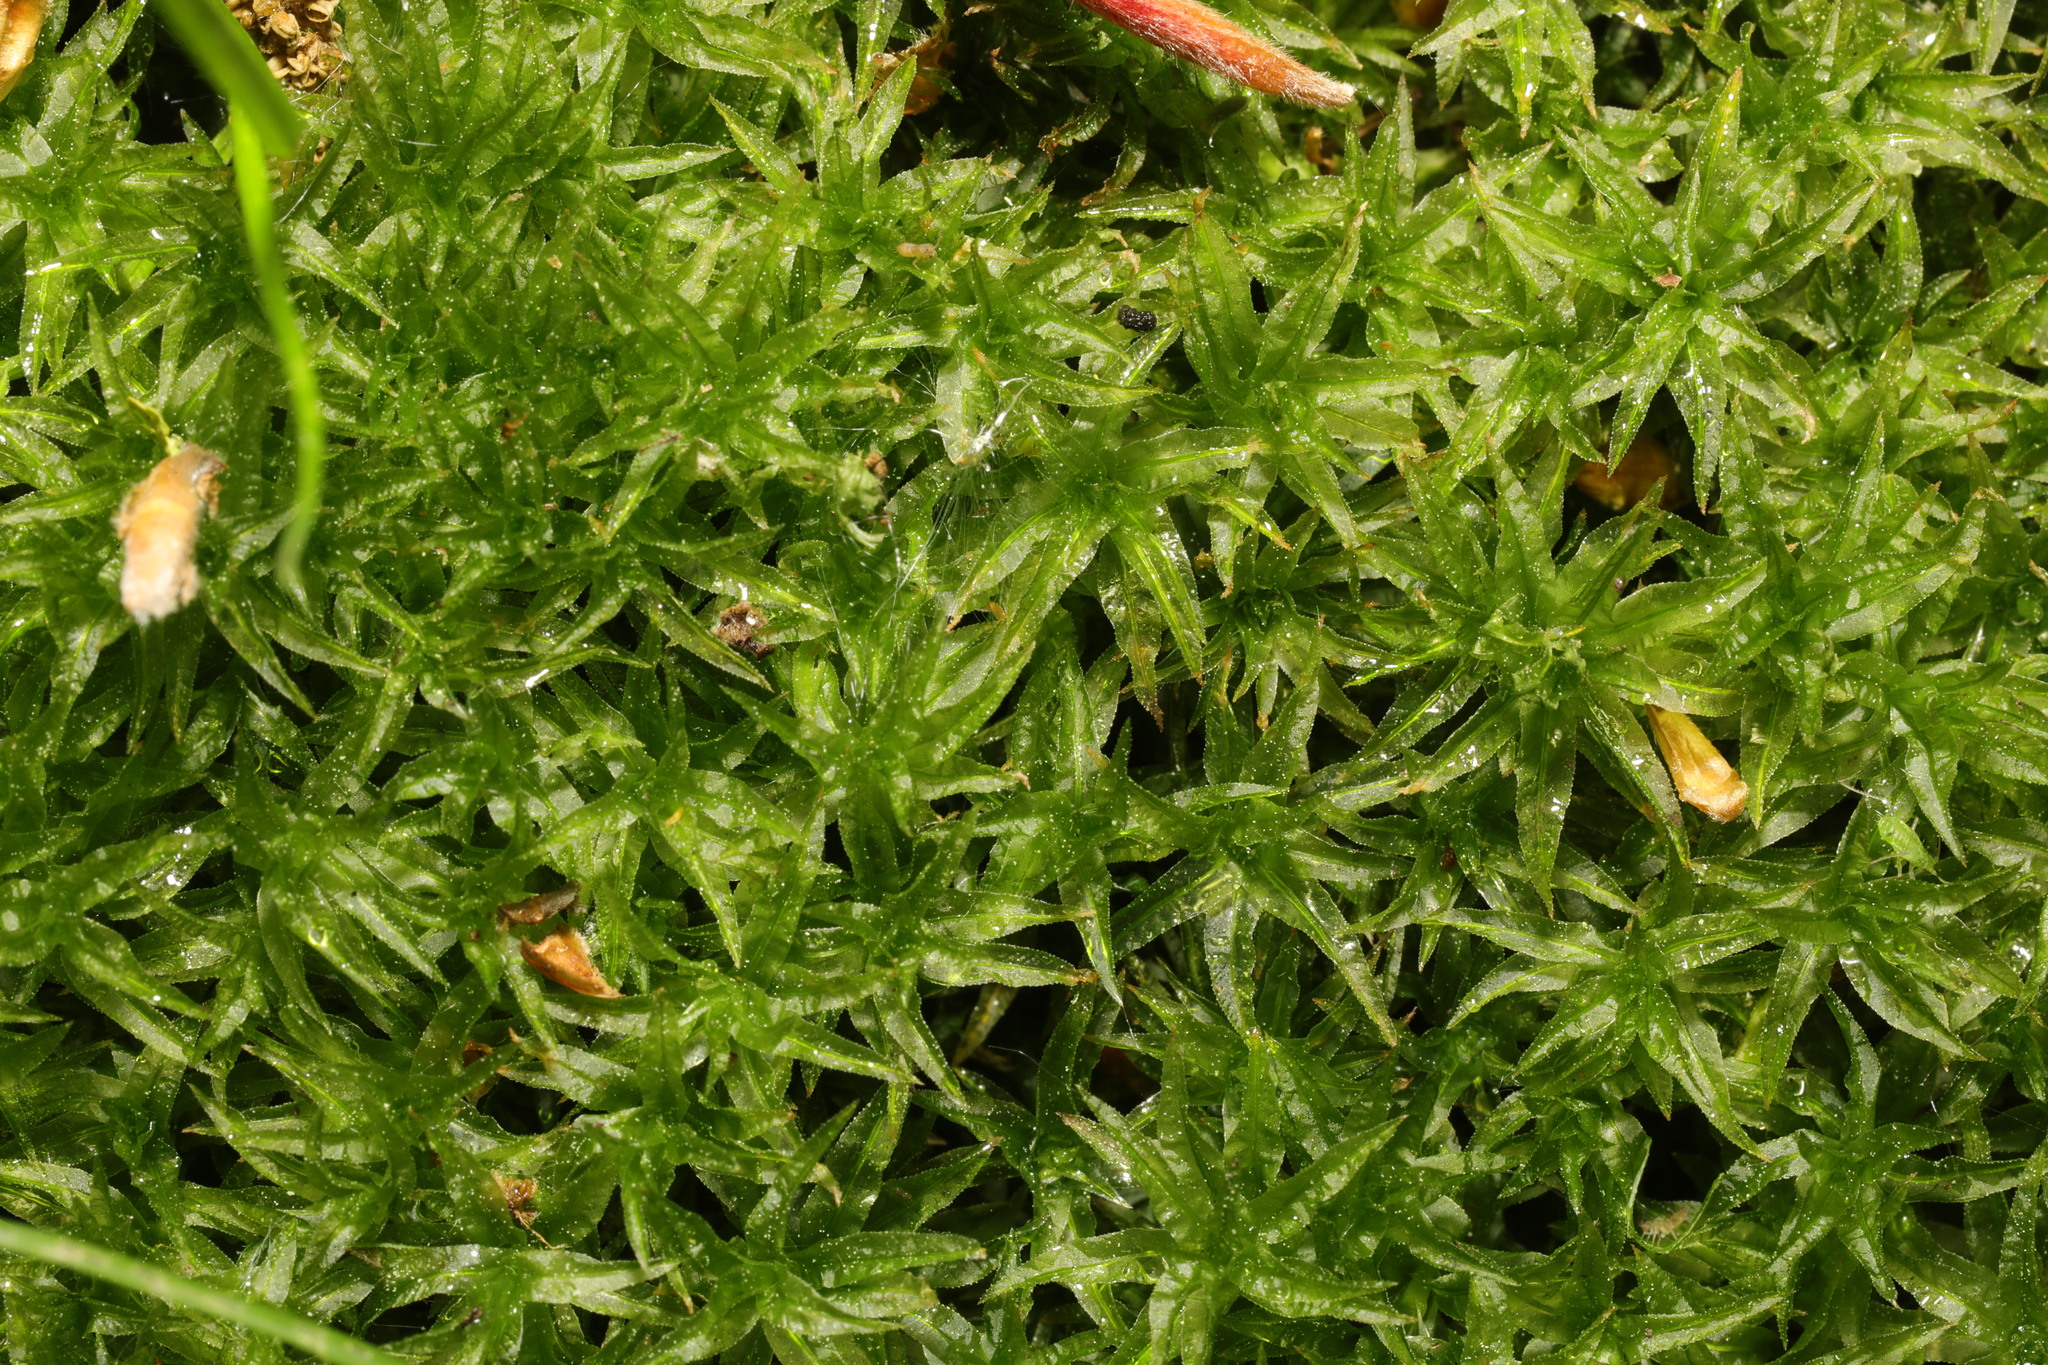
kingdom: Plantae
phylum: Bryophyta
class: Polytrichopsida
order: Polytrichales
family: Polytrichaceae
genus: Atrichum
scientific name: Atrichum undulatum
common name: Common smoothcap
